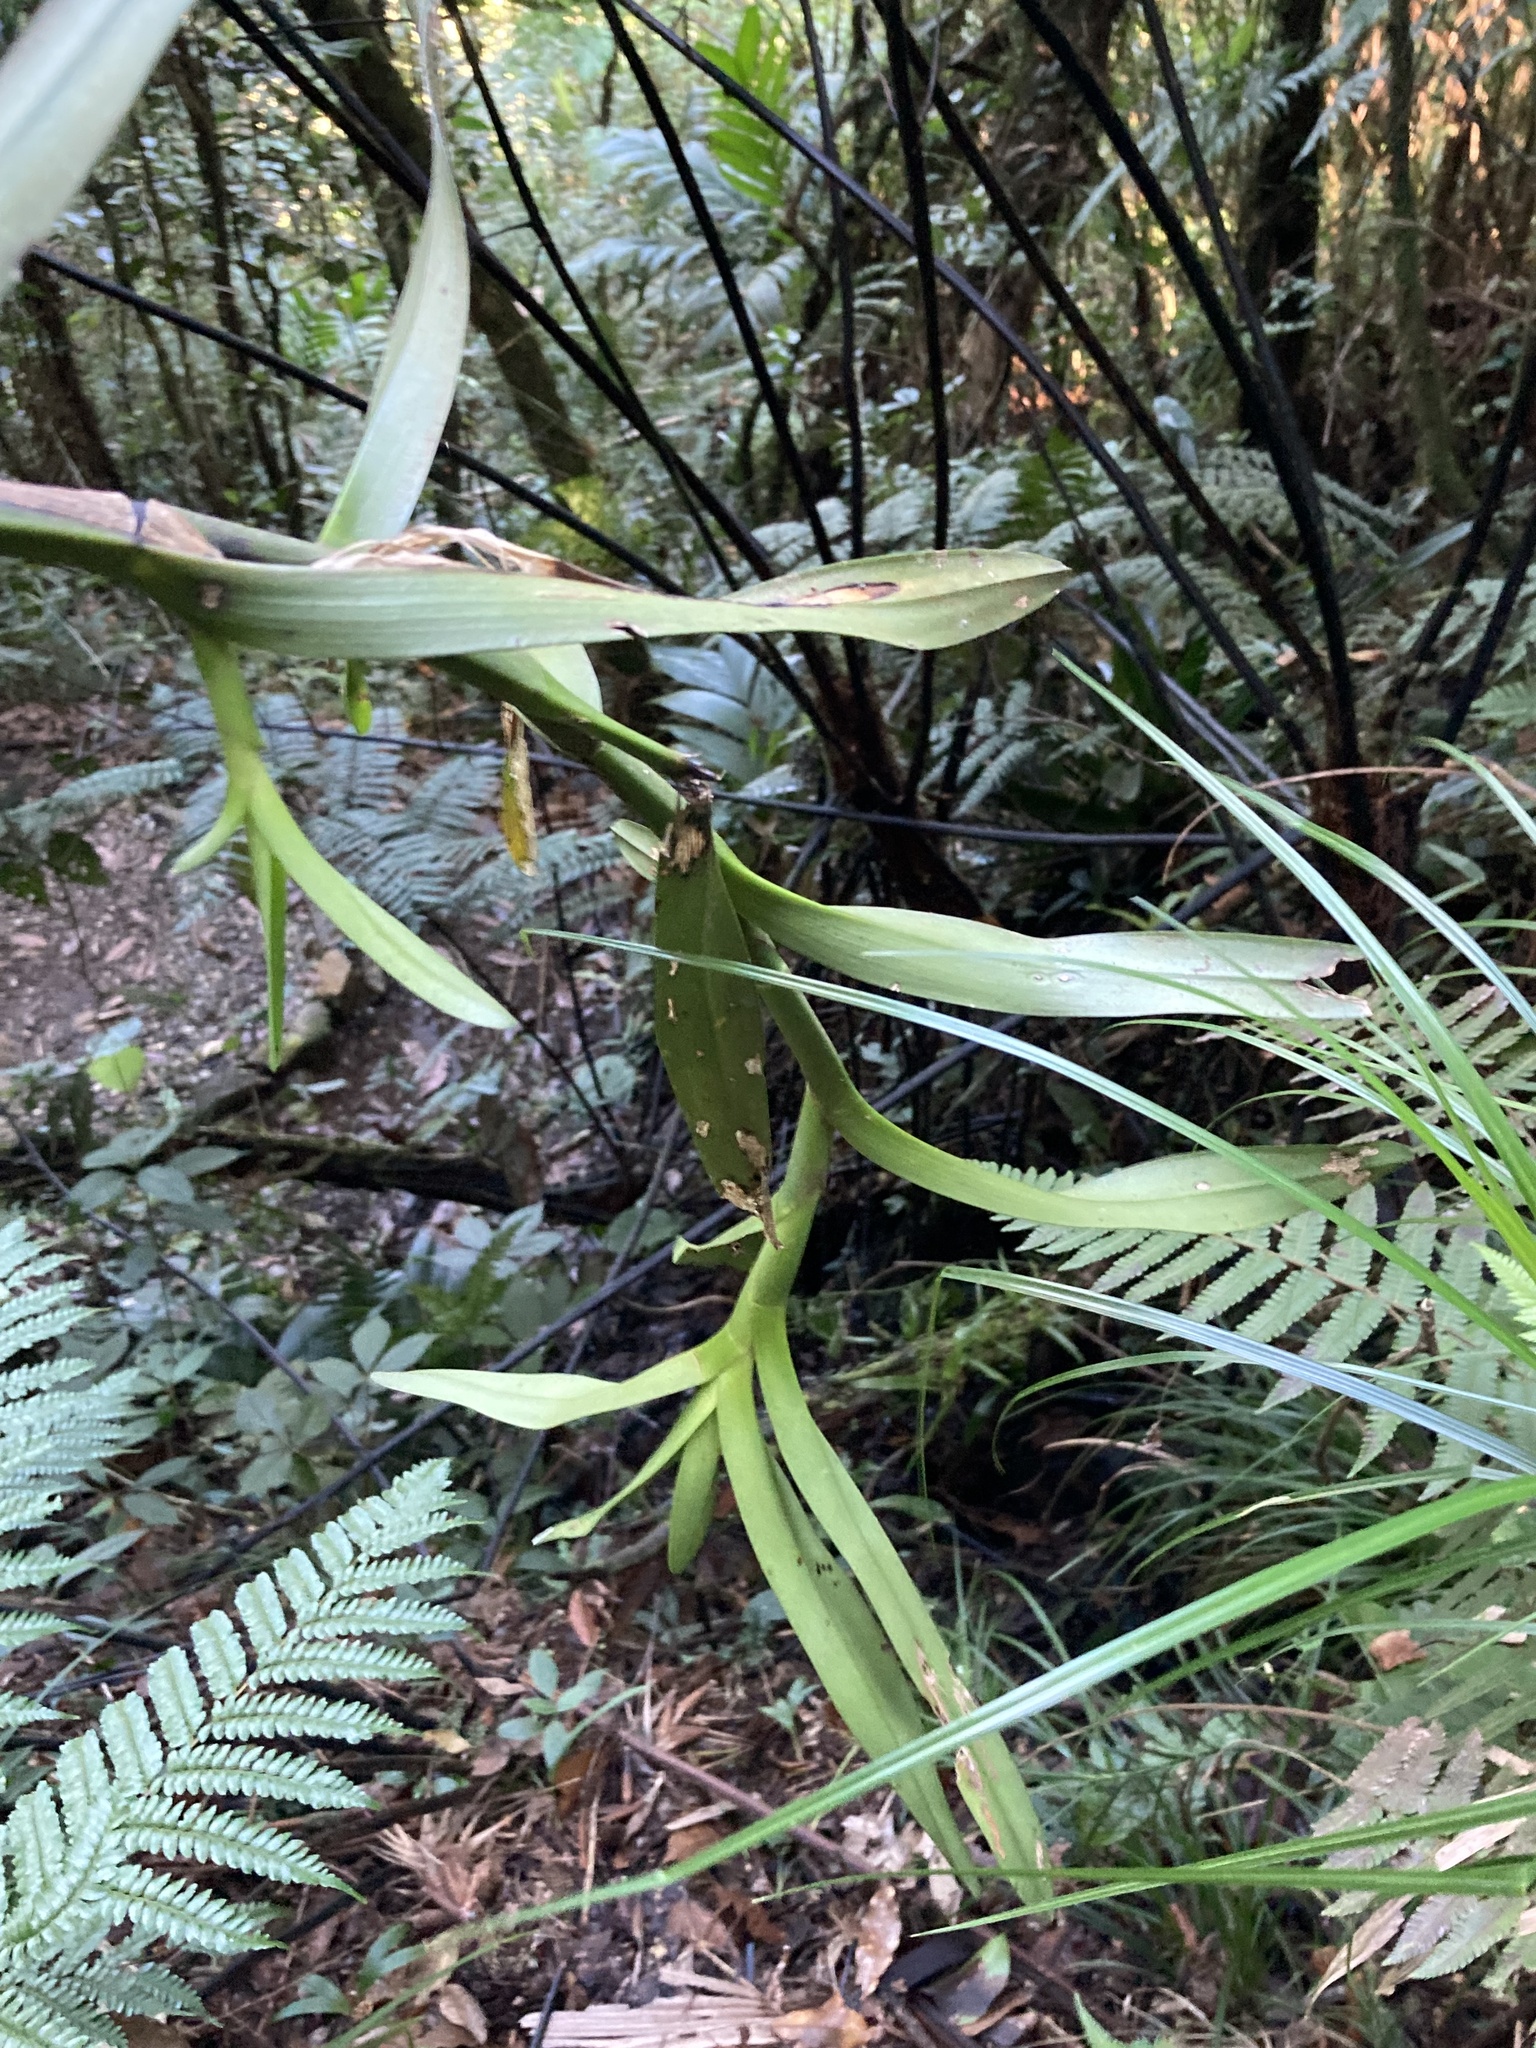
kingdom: Plantae
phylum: Tracheophyta
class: Liliopsida
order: Asparagales
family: Orchidaceae
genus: Epidendrum
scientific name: Epidendrum mixtum
